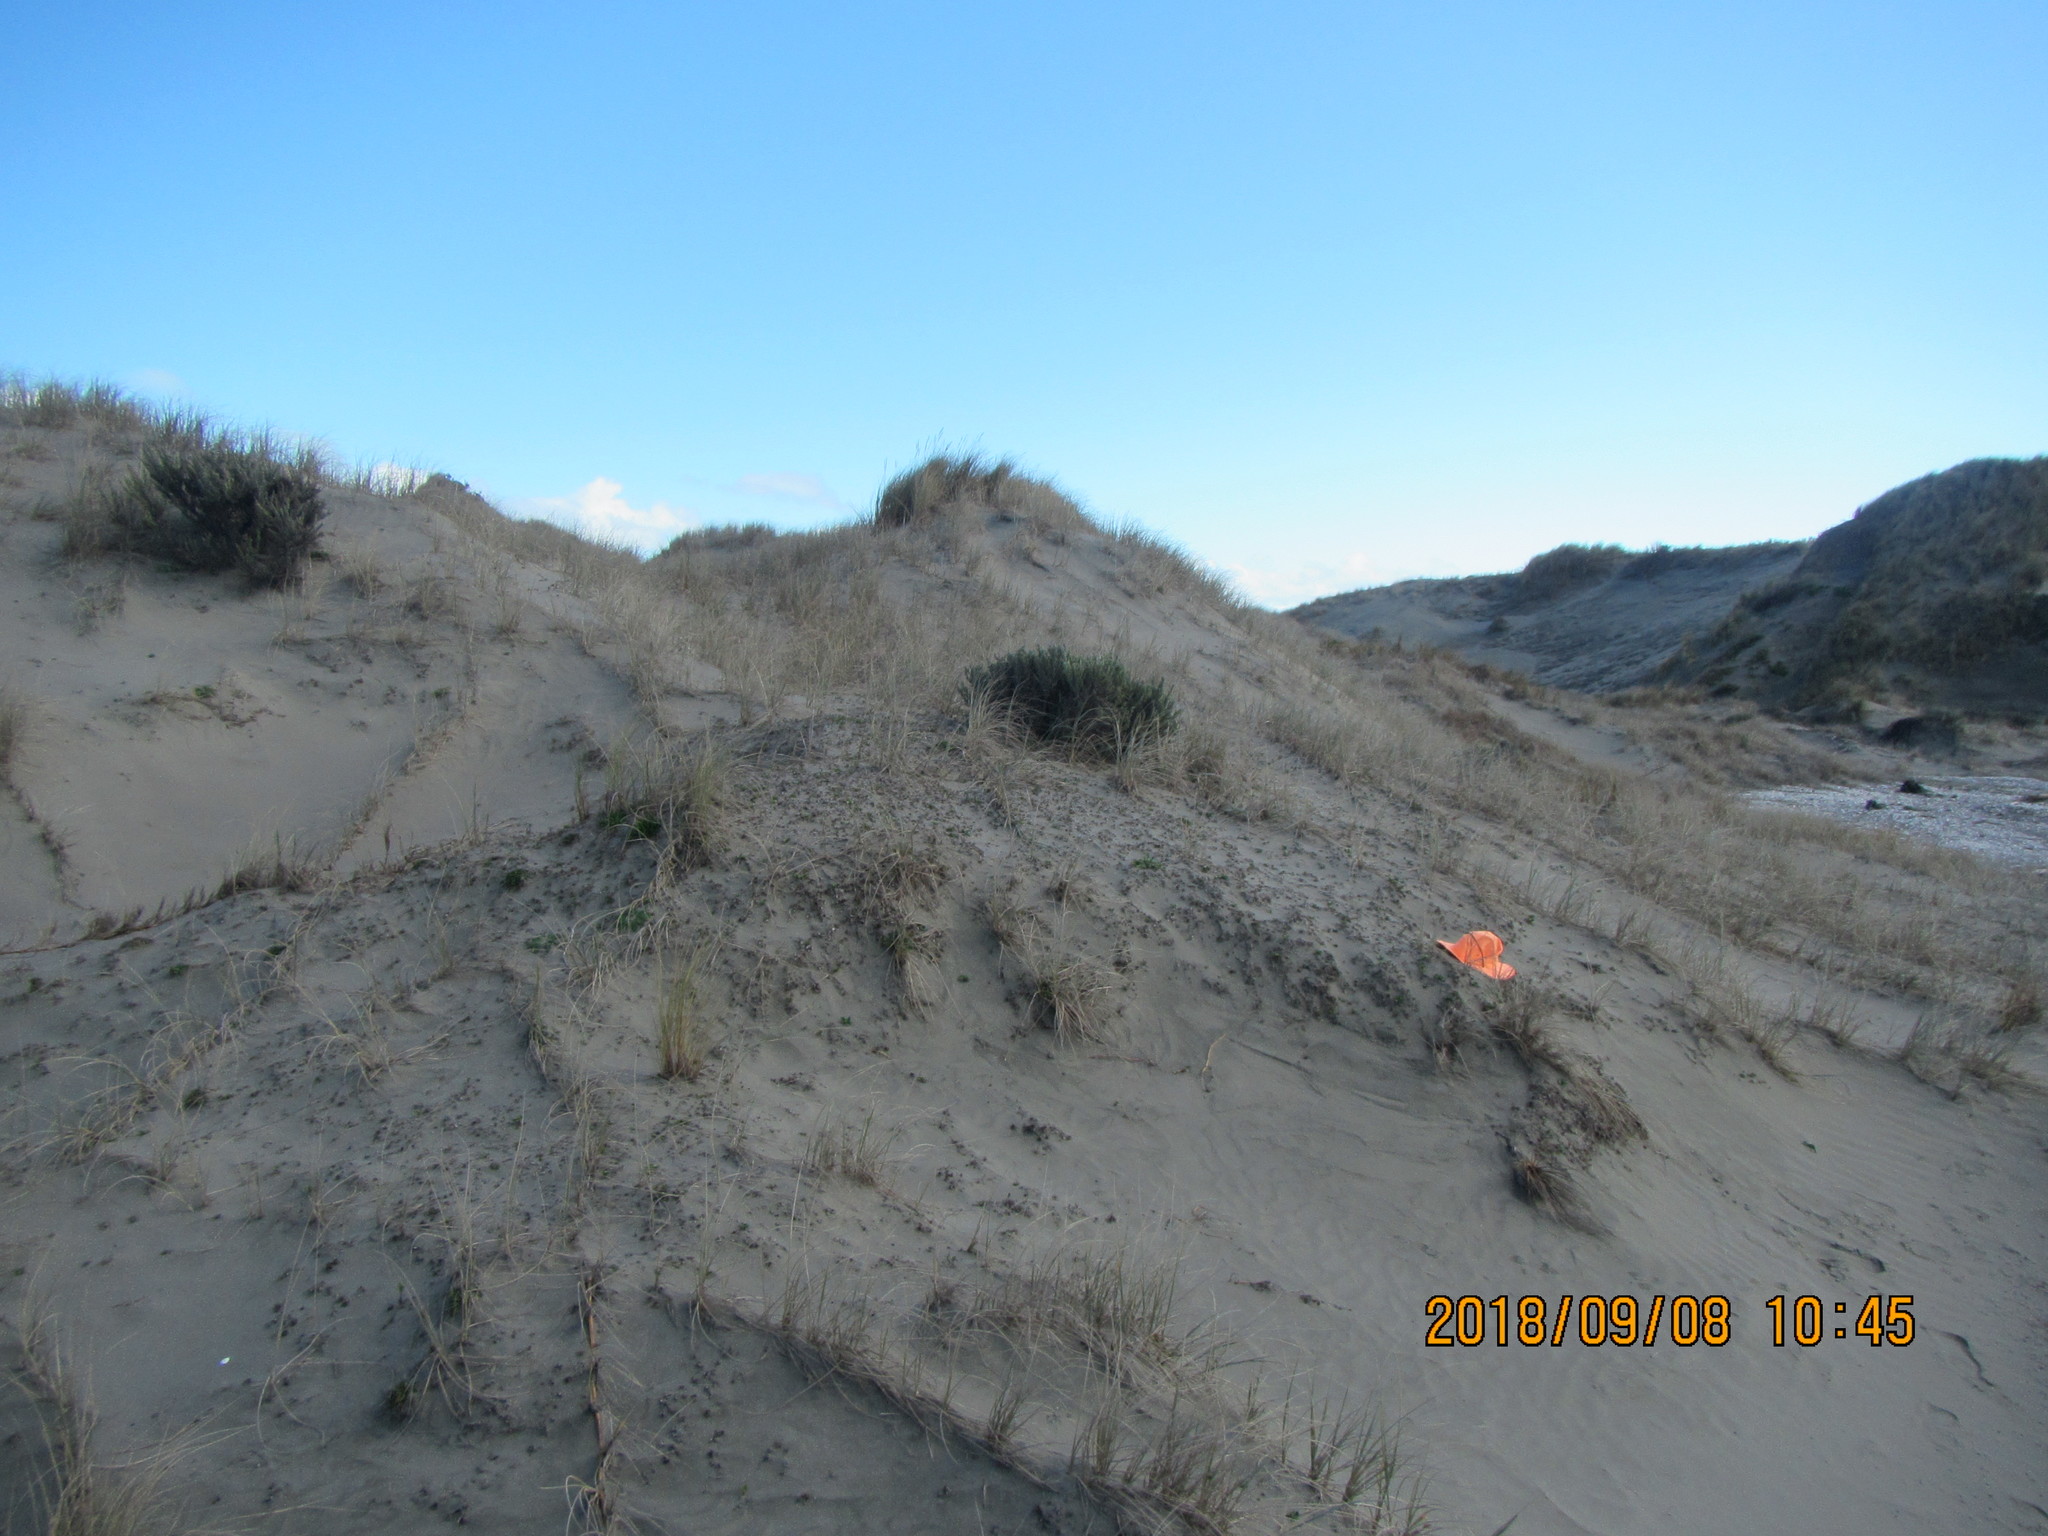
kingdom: Plantae
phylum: Tracheophyta
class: Magnoliopsida
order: Solanales
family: Convolvulaceae
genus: Calystegia
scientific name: Calystegia soldanella
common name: Sea bindweed
